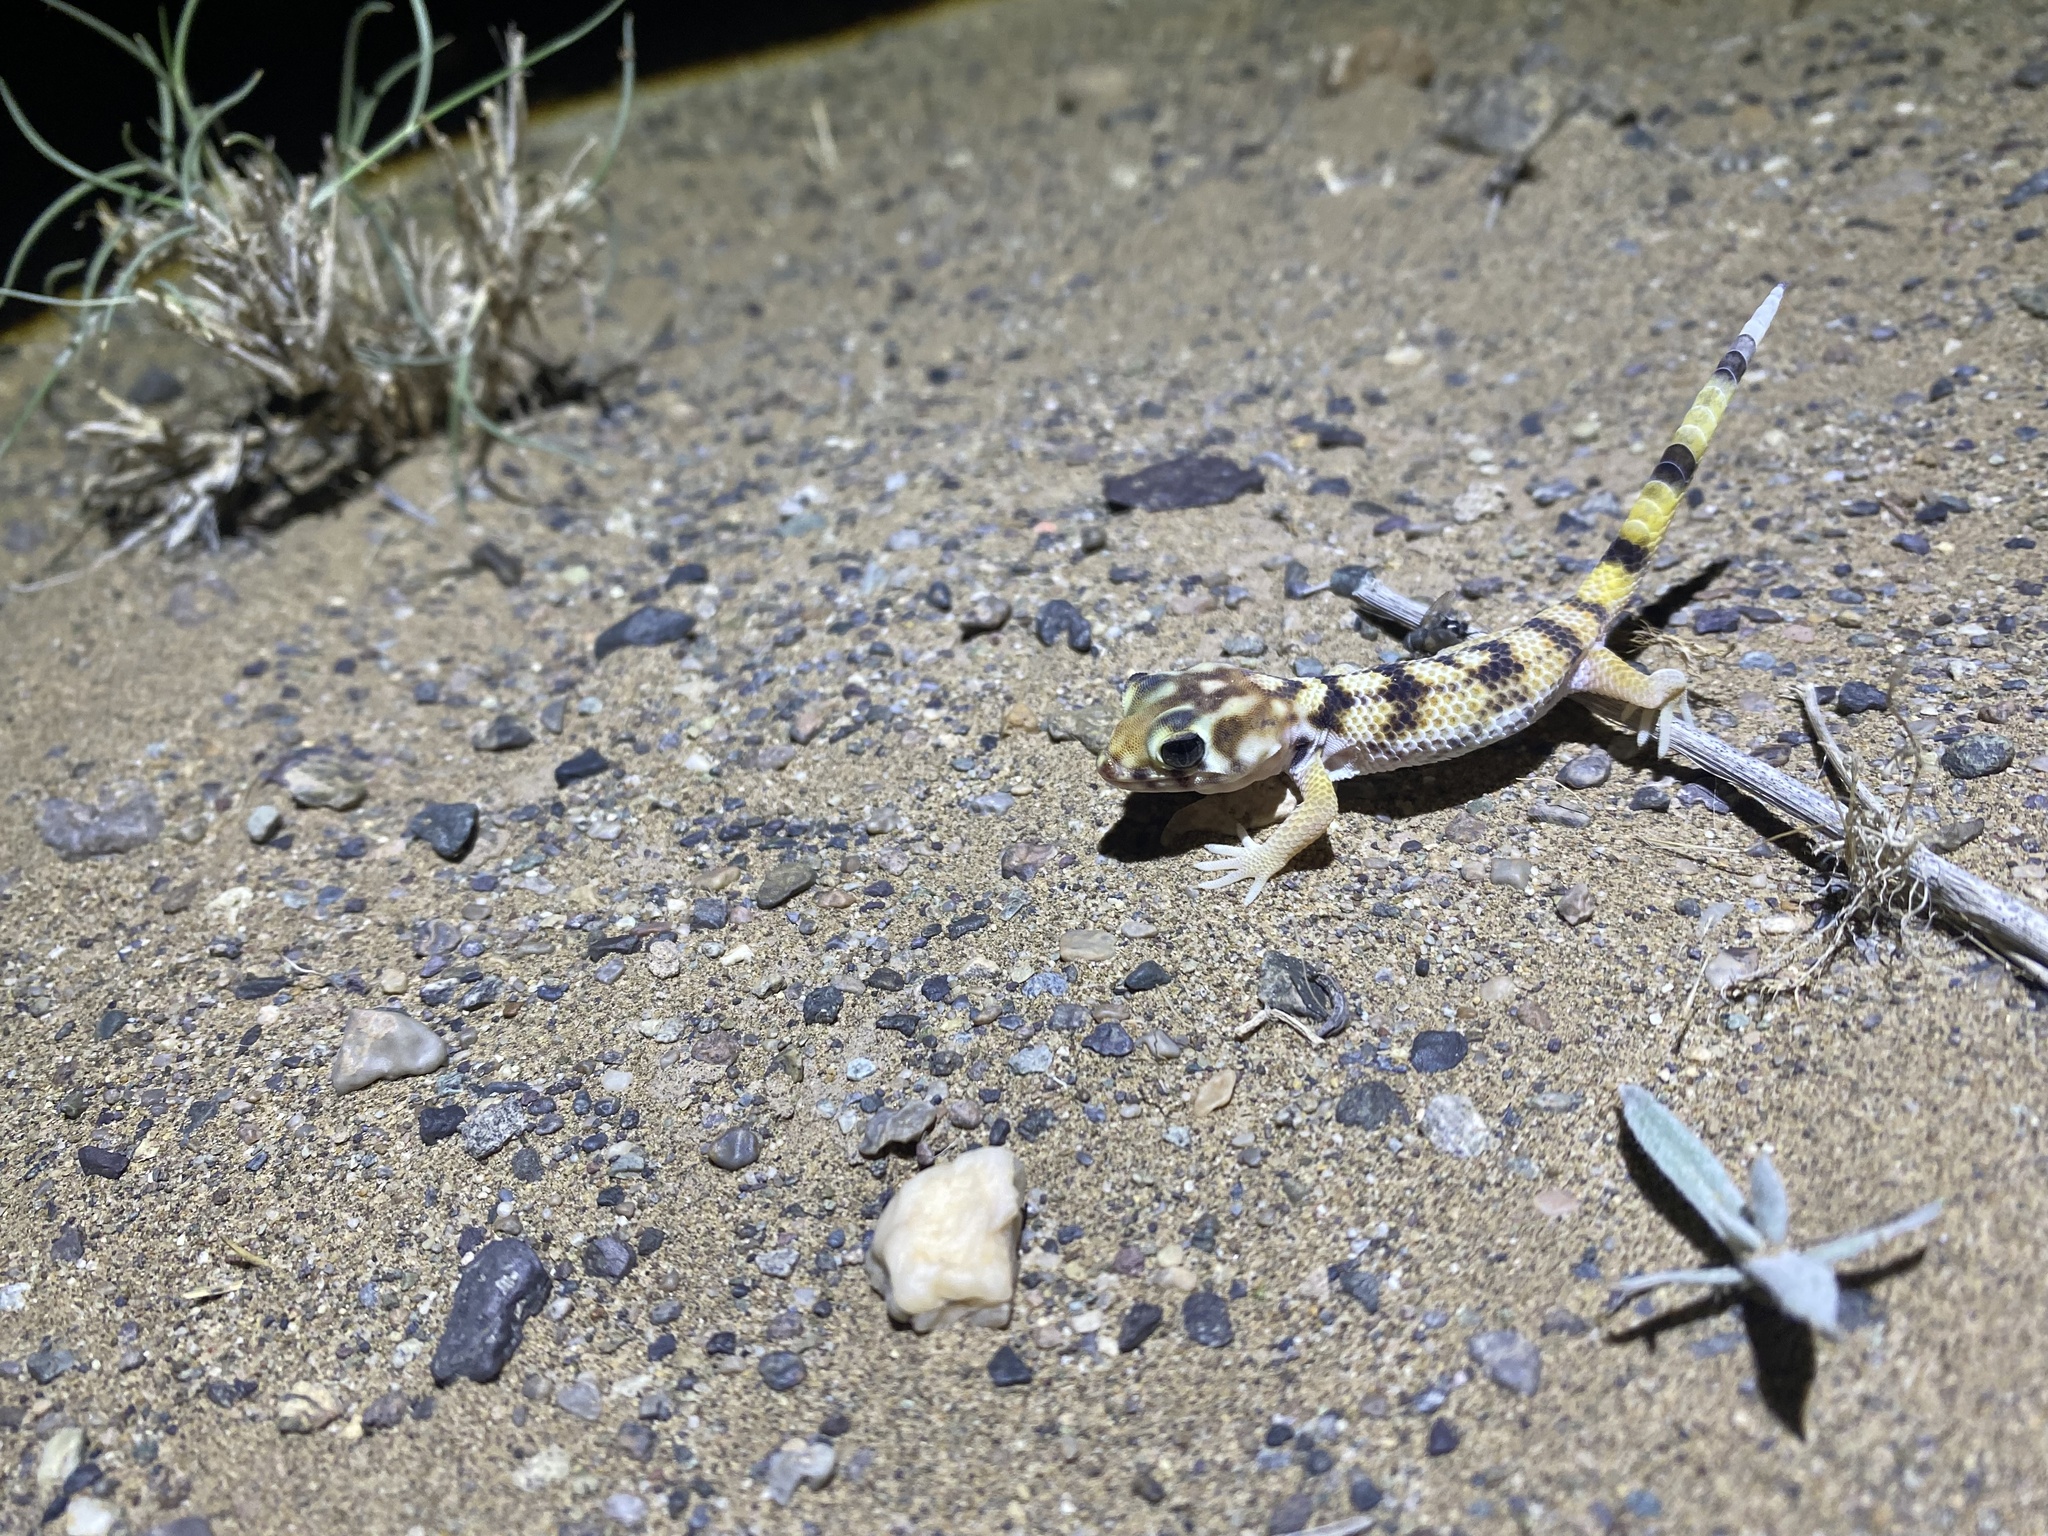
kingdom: Animalia
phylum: Chordata
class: Squamata
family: Sphaerodactylidae
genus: Teratoscincus
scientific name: Teratoscincus keyserlingii
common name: Frog-eyed gecko
